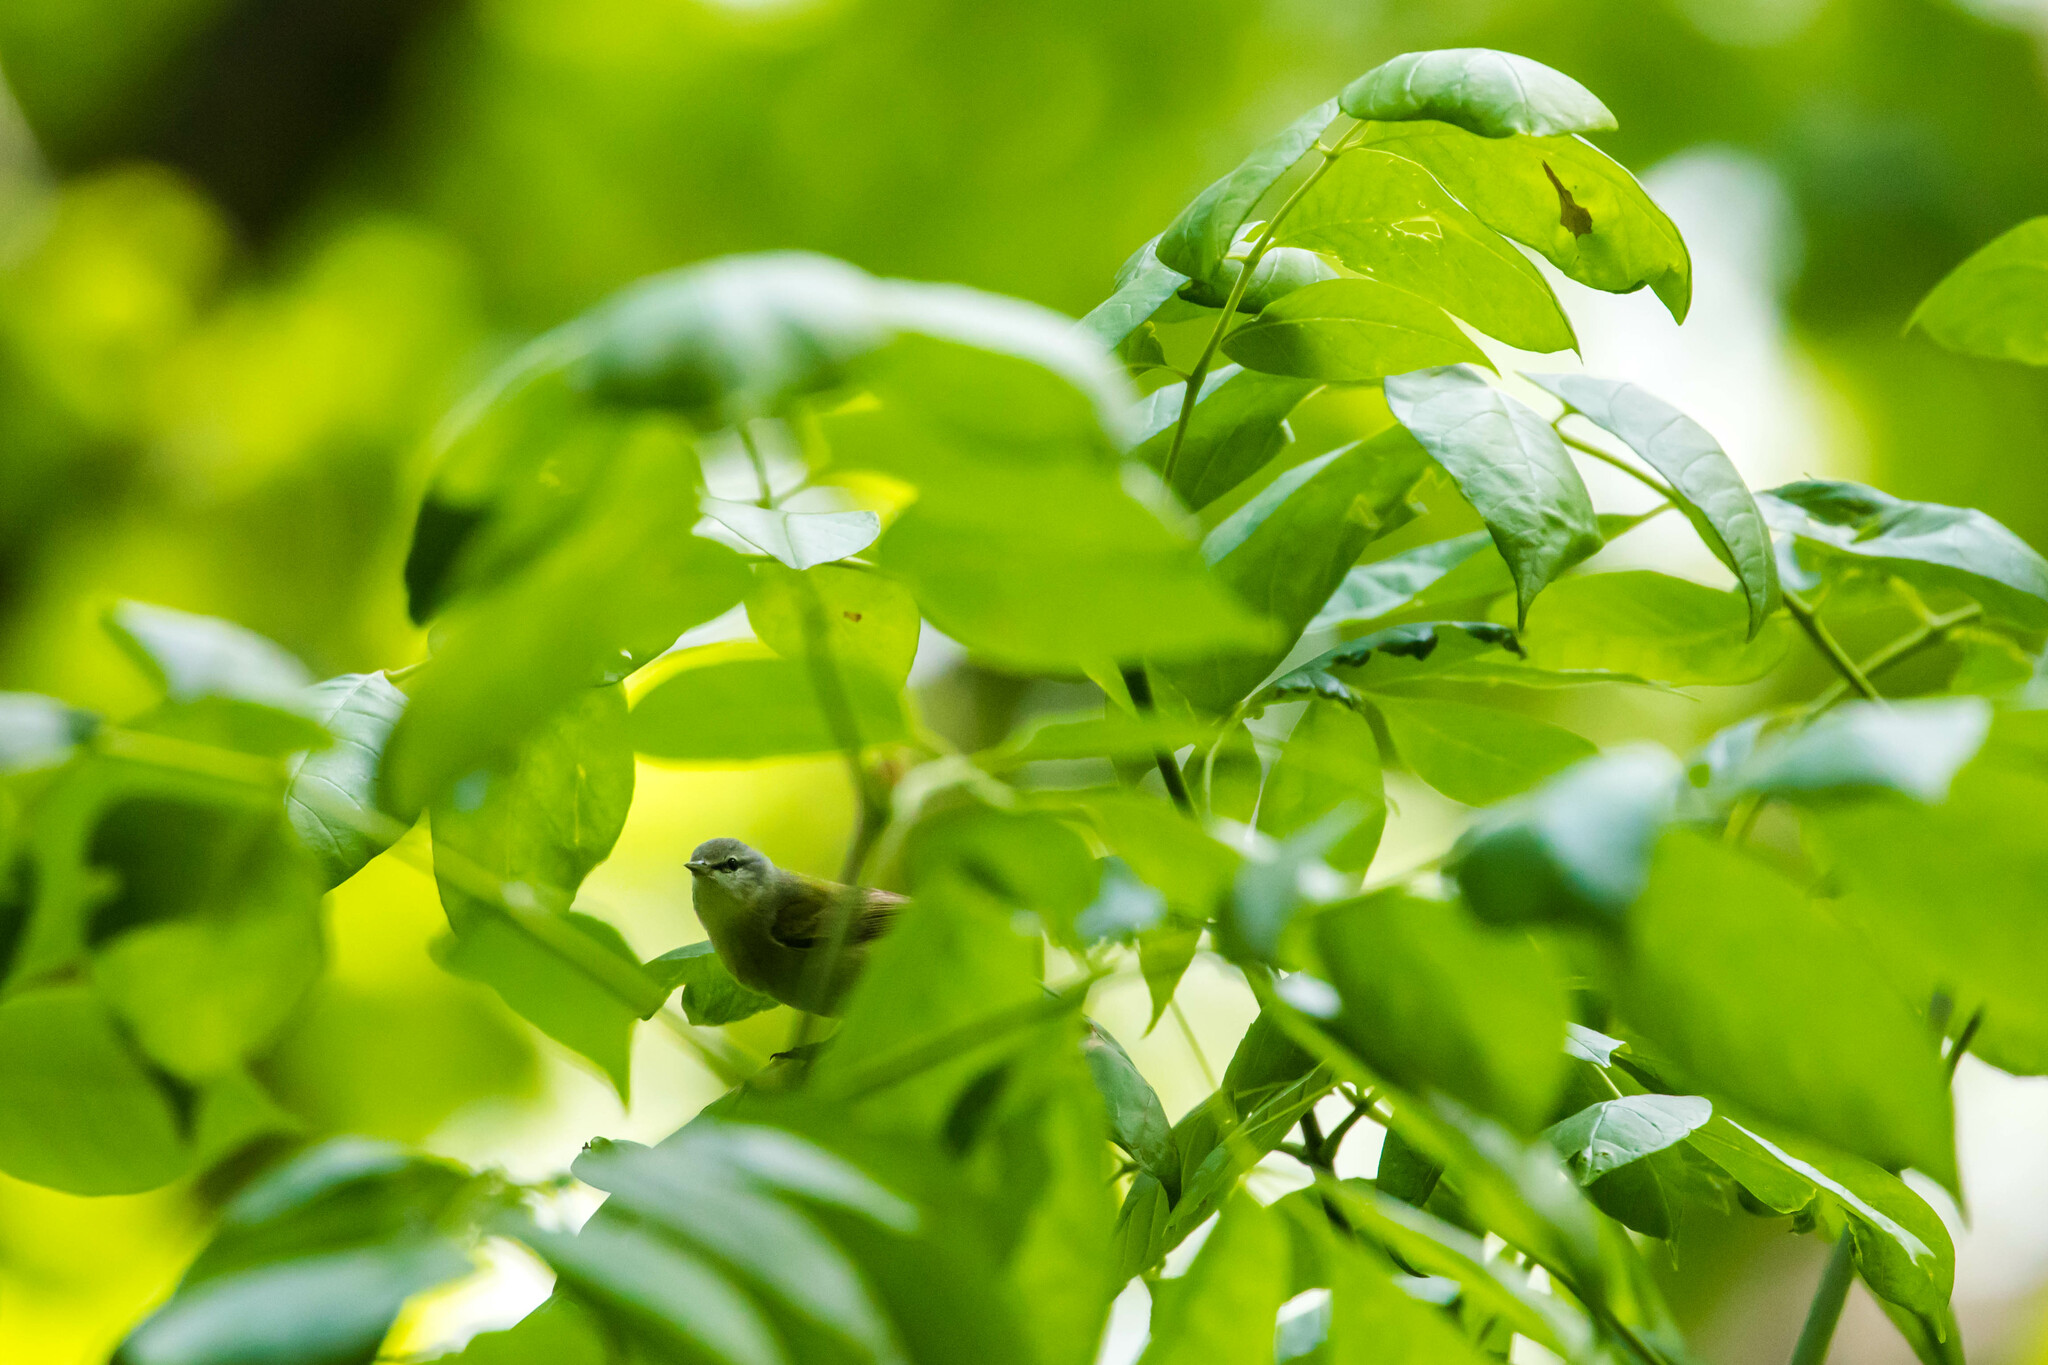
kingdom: Animalia
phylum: Chordata
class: Aves
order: Passeriformes
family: Parulidae
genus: Leiothlypis
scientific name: Leiothlypis peregrina
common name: Tennessee warbler
